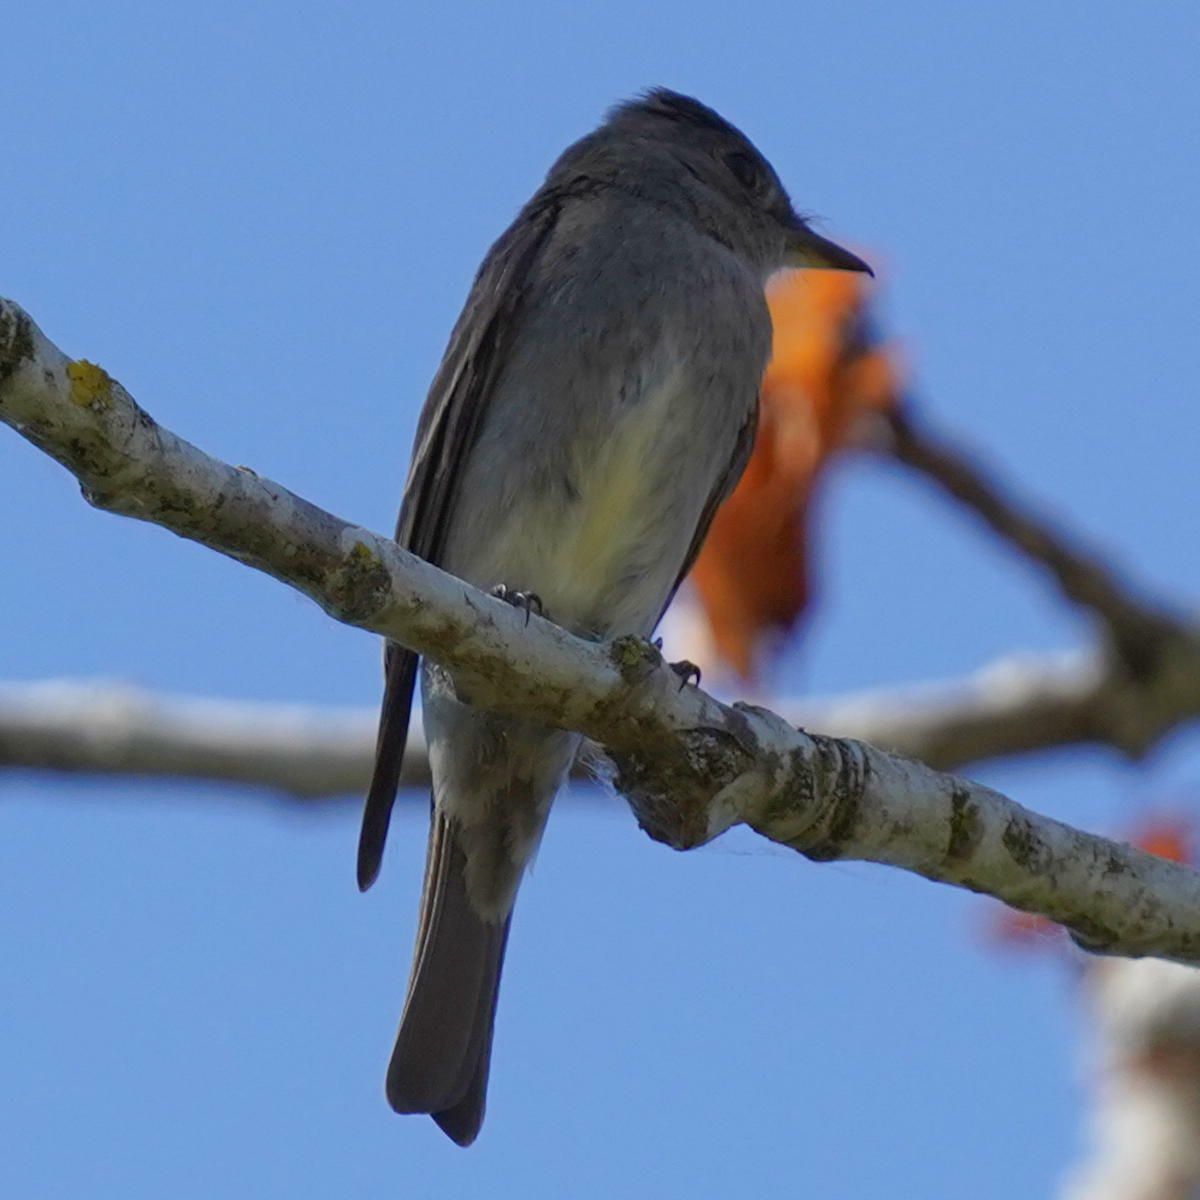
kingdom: Animalia
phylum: Chordata
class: Aves
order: Passeriformes
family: Tyrannidae
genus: Contopus
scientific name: Contopus sordidulus
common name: Western wood-pewee
